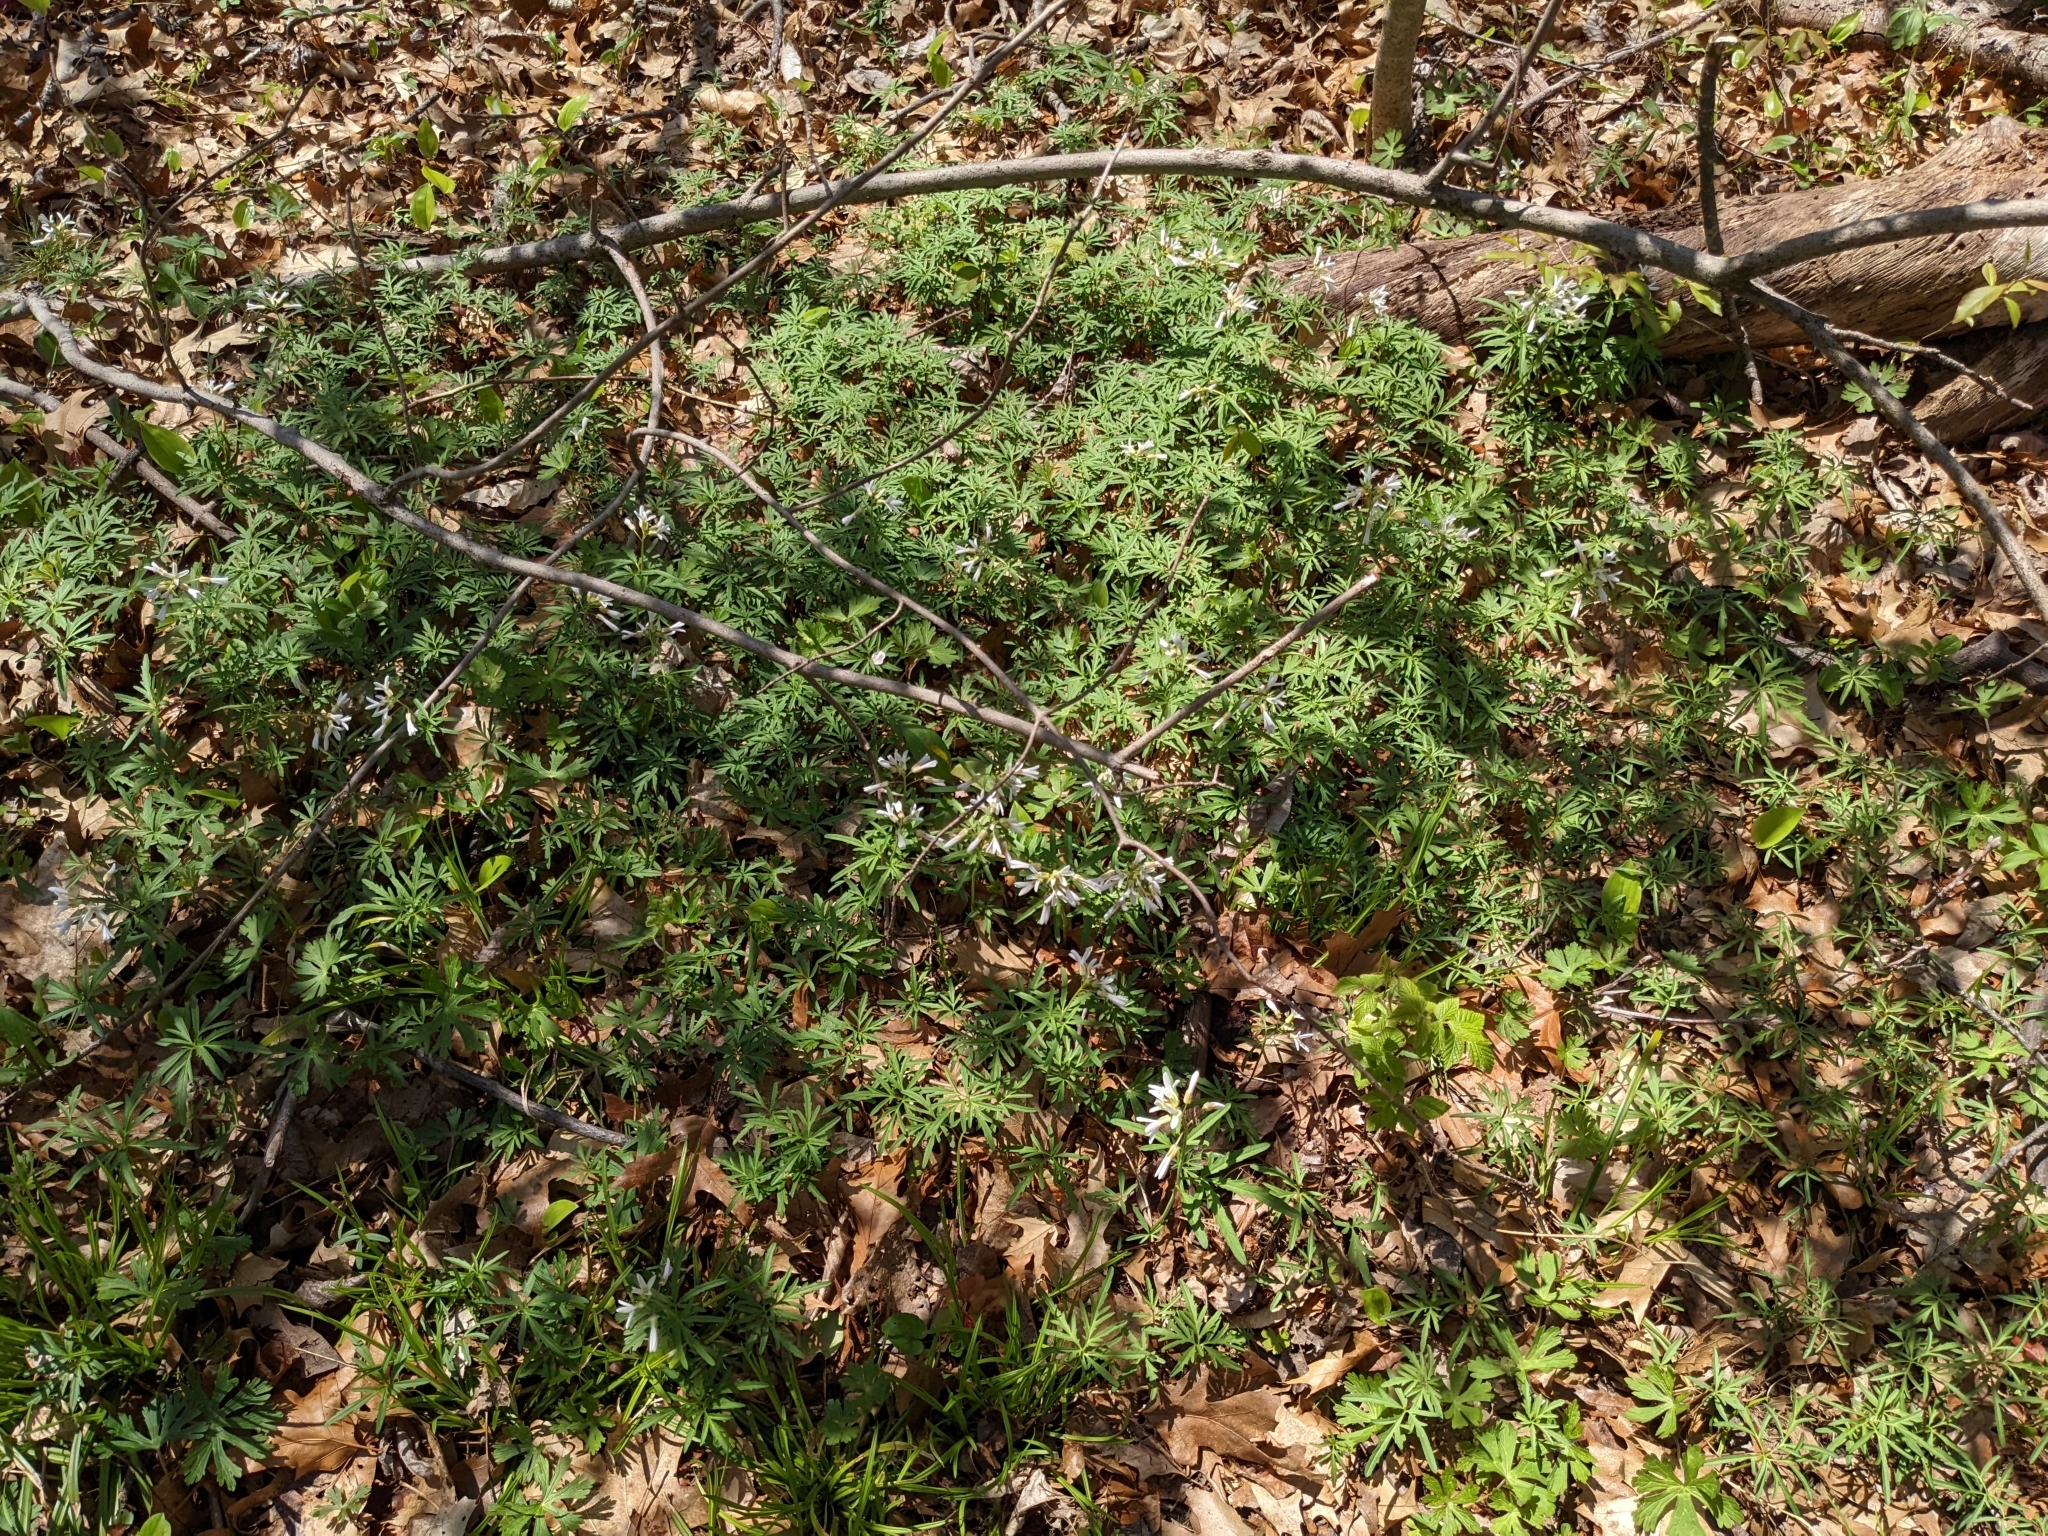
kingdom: Plantae
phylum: Tracheophyta
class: Magnoliopsida
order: Brassicales
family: Brassicaceae
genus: Cardamine
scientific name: Cardamine concatenata
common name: Cut-leaf toothcup
